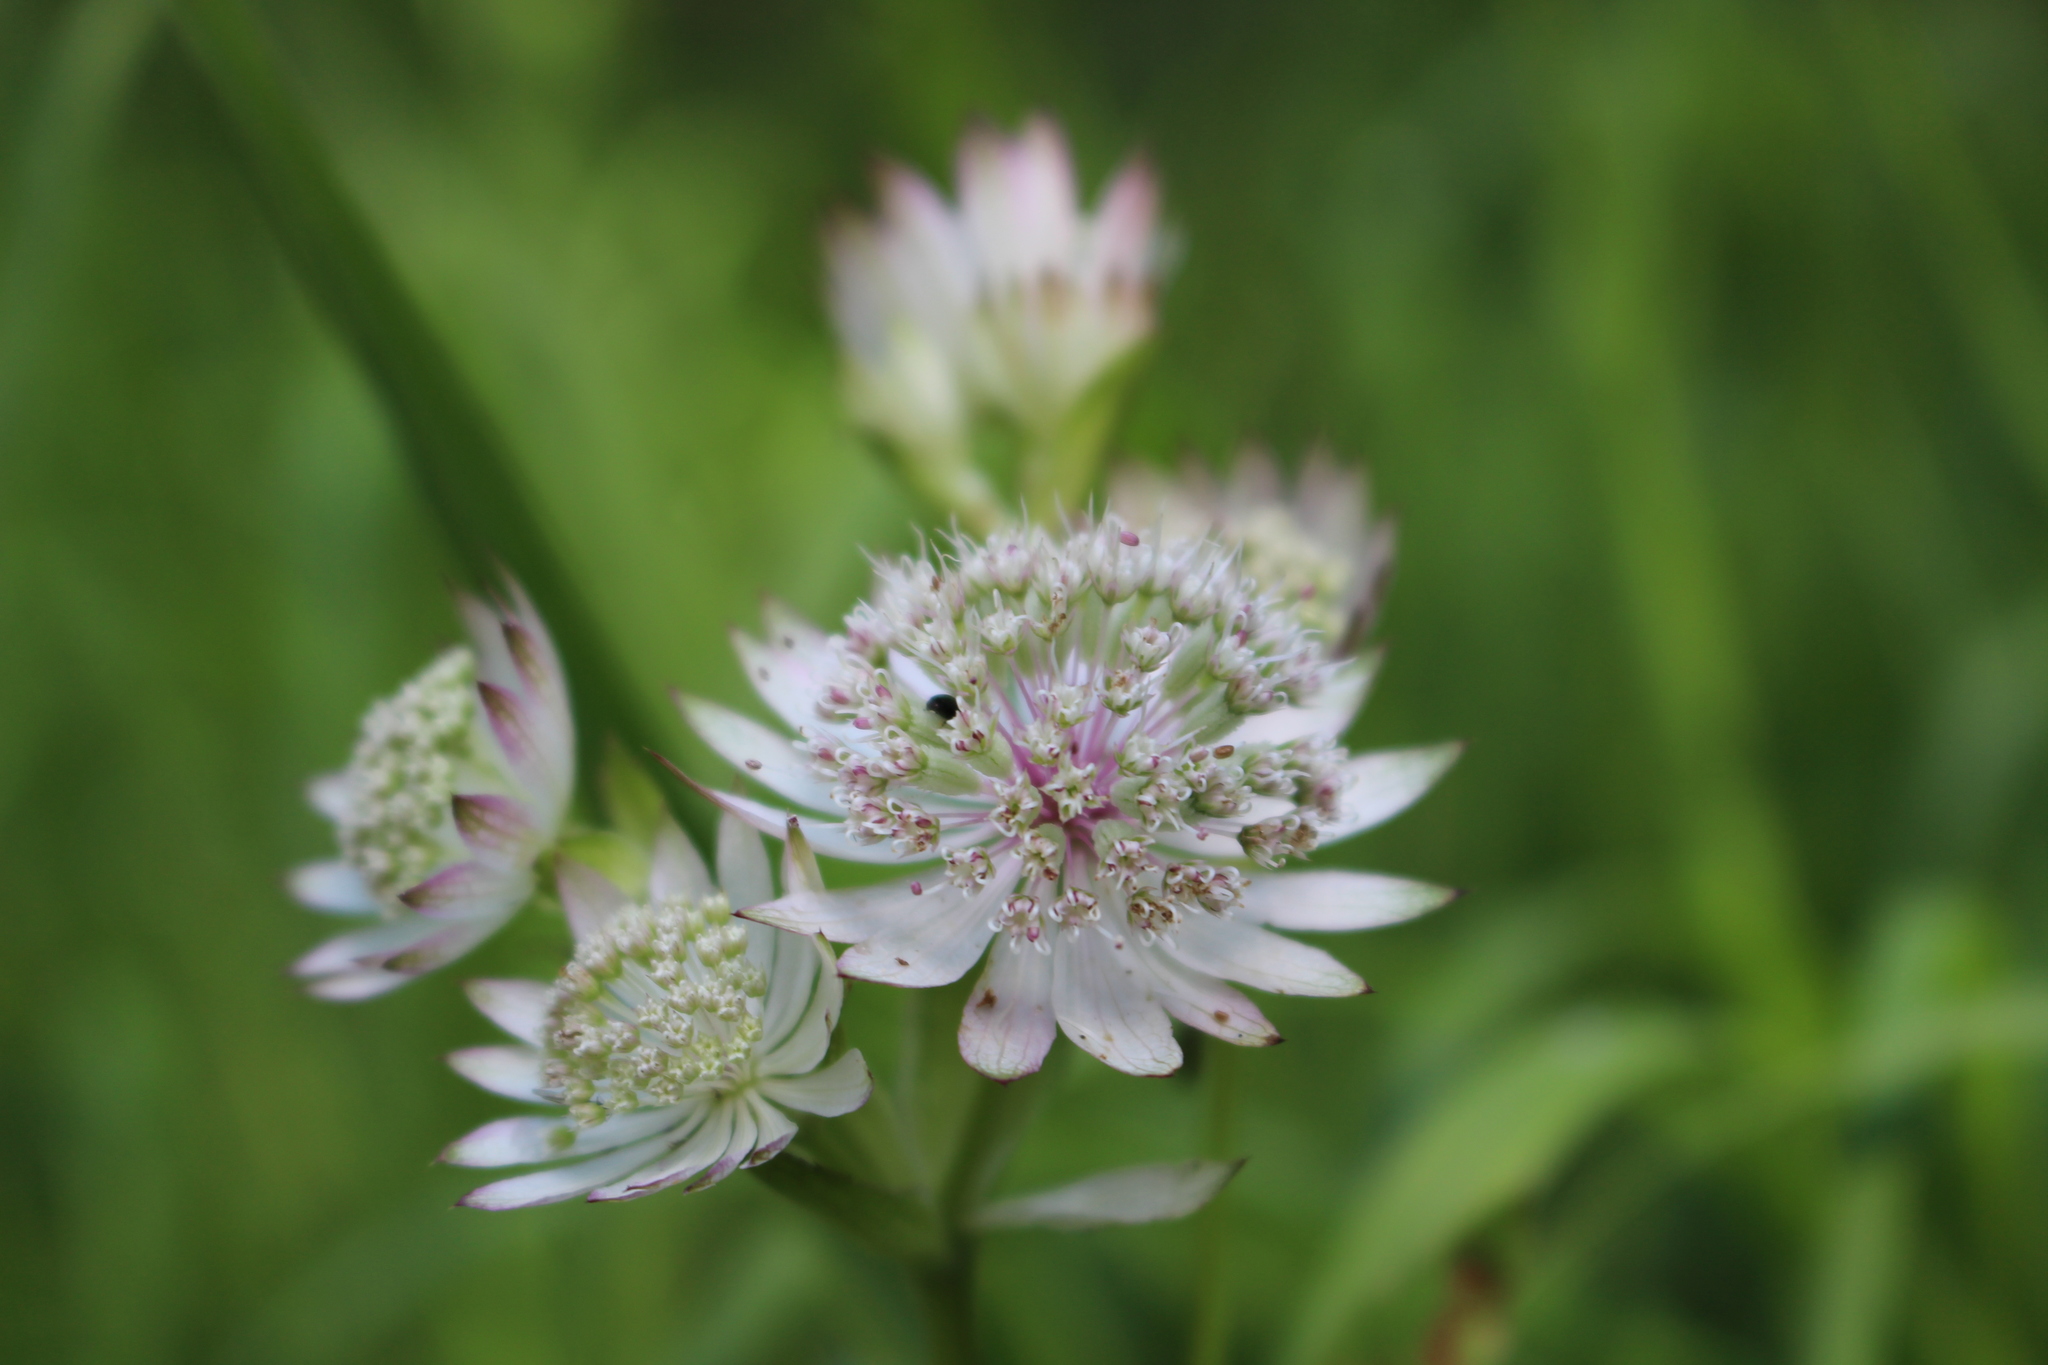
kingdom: Plantae
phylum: Tracheophyta
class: Magnoliopsida
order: Apiales
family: Apiaceae
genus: Astrantia
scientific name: Astrantia major
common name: Greater masterwort
